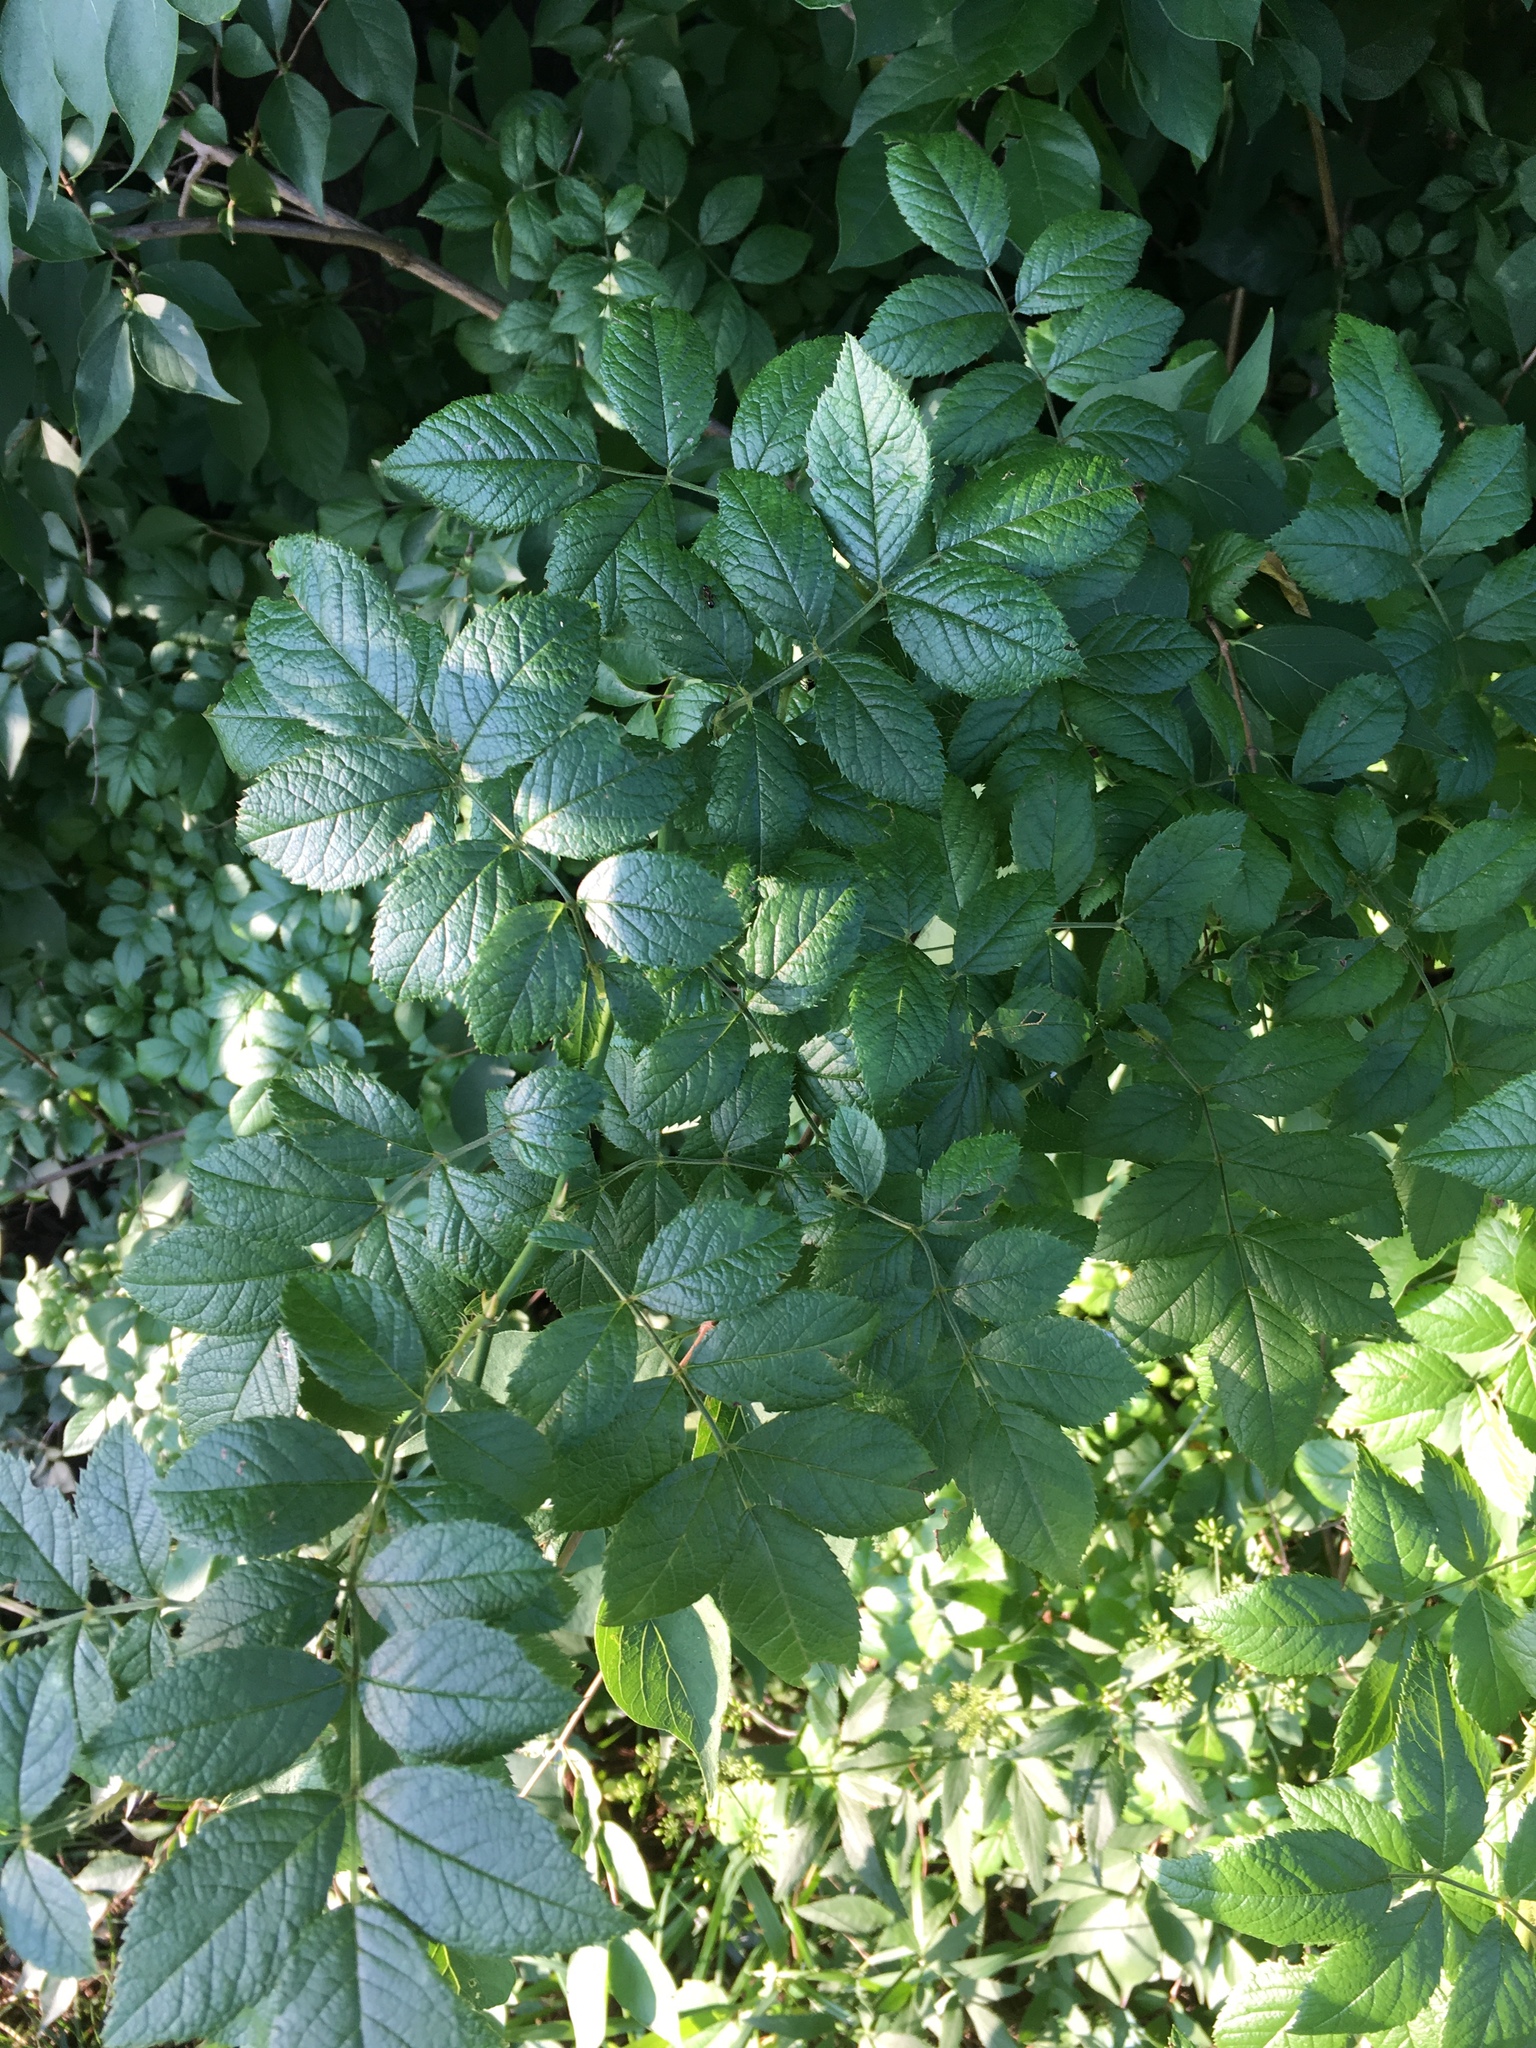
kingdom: Plantae
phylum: Tracheophyta
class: Magnoliopsida
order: Rosales
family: Rosaceae
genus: Rosa
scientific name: Rosa multiflora
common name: Multiflora rose
